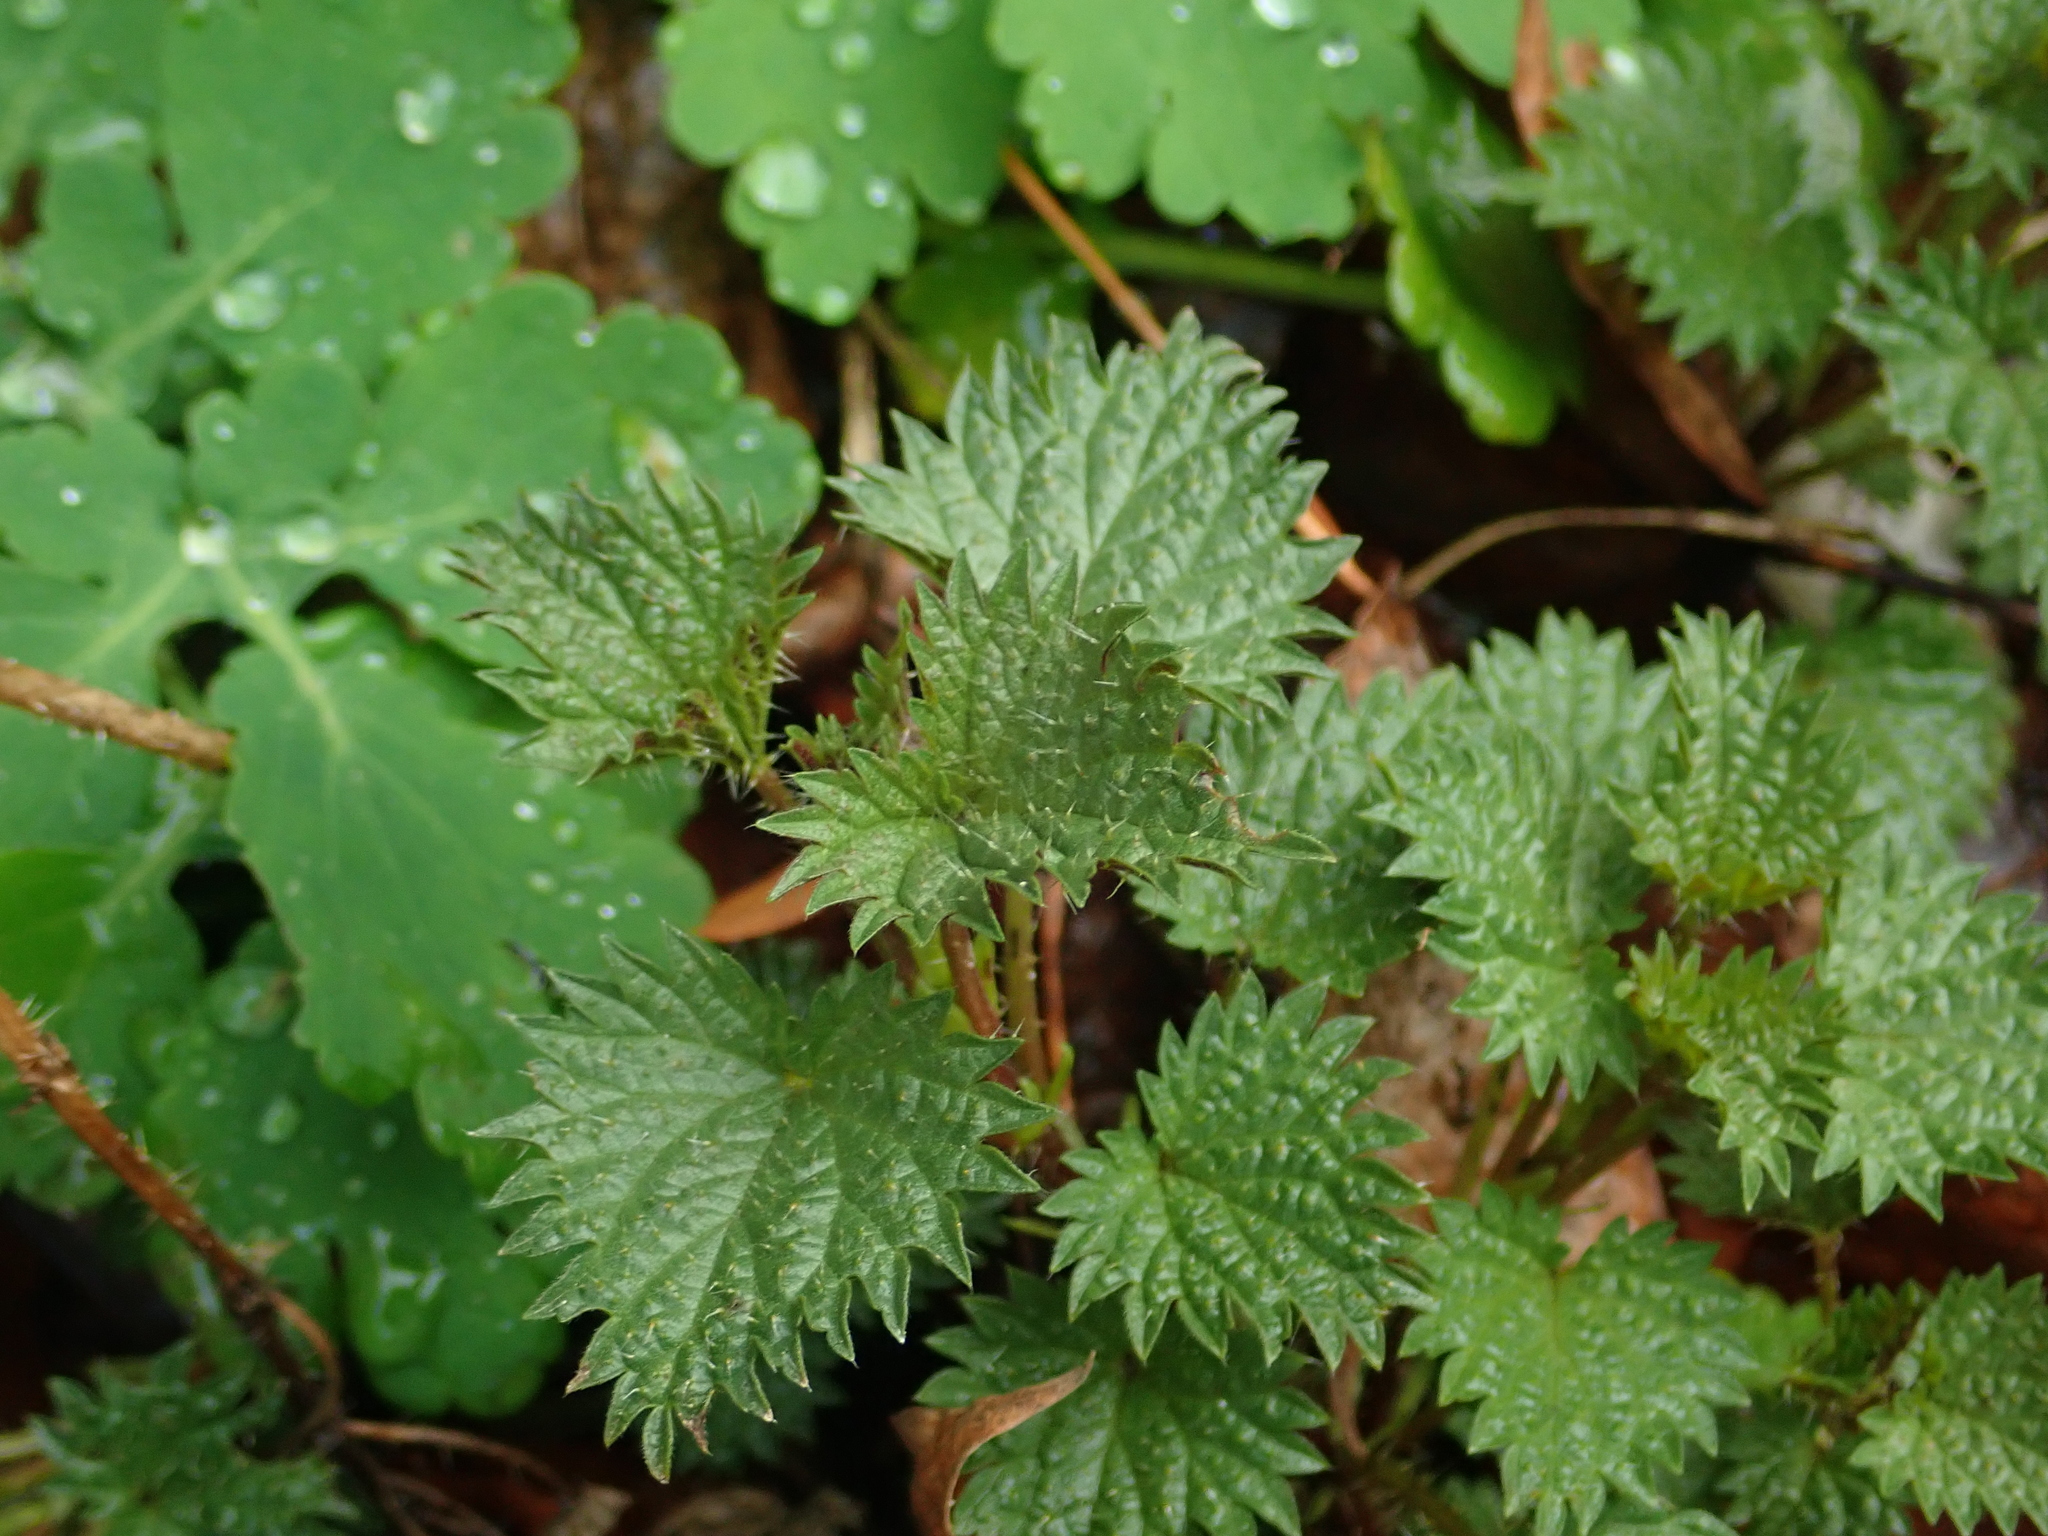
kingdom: Plantae
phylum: Tracheophyta
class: Magnoliopsida
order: Rosales
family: Urticaceae
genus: Urtica
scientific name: Urtica dioica
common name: Common nettle
